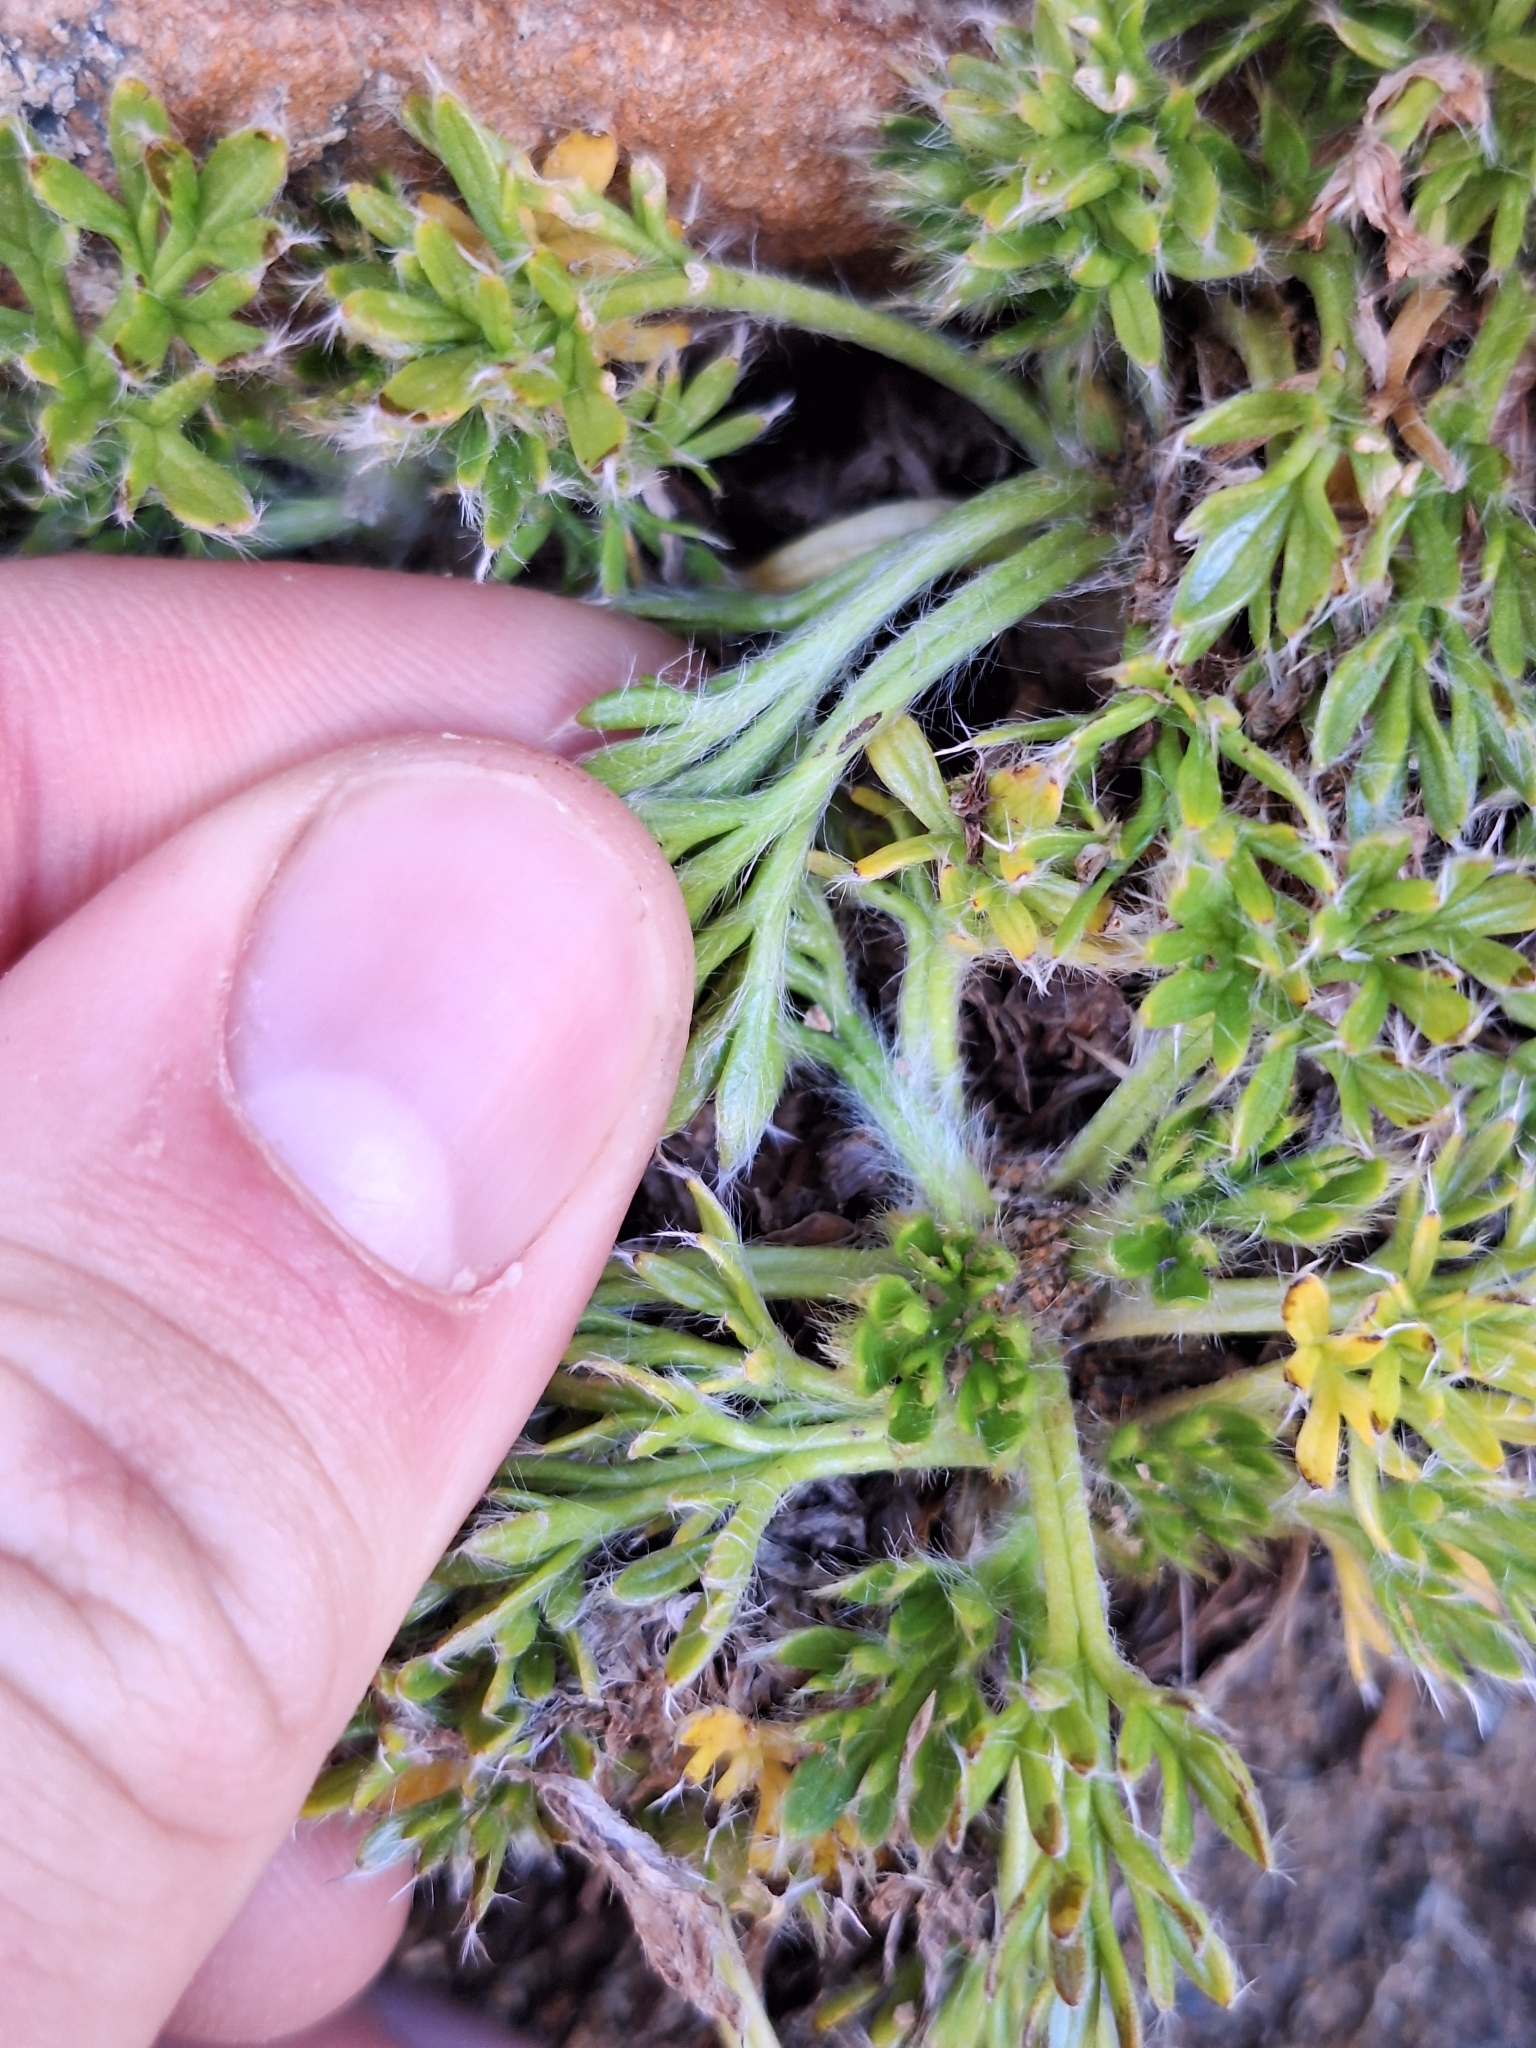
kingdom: Plantae
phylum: Tracheophyta
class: Magnoliopsida
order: Ranunculales
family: Ranunculaceae
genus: Ranunculus
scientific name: Ranunculus sericophyllus
